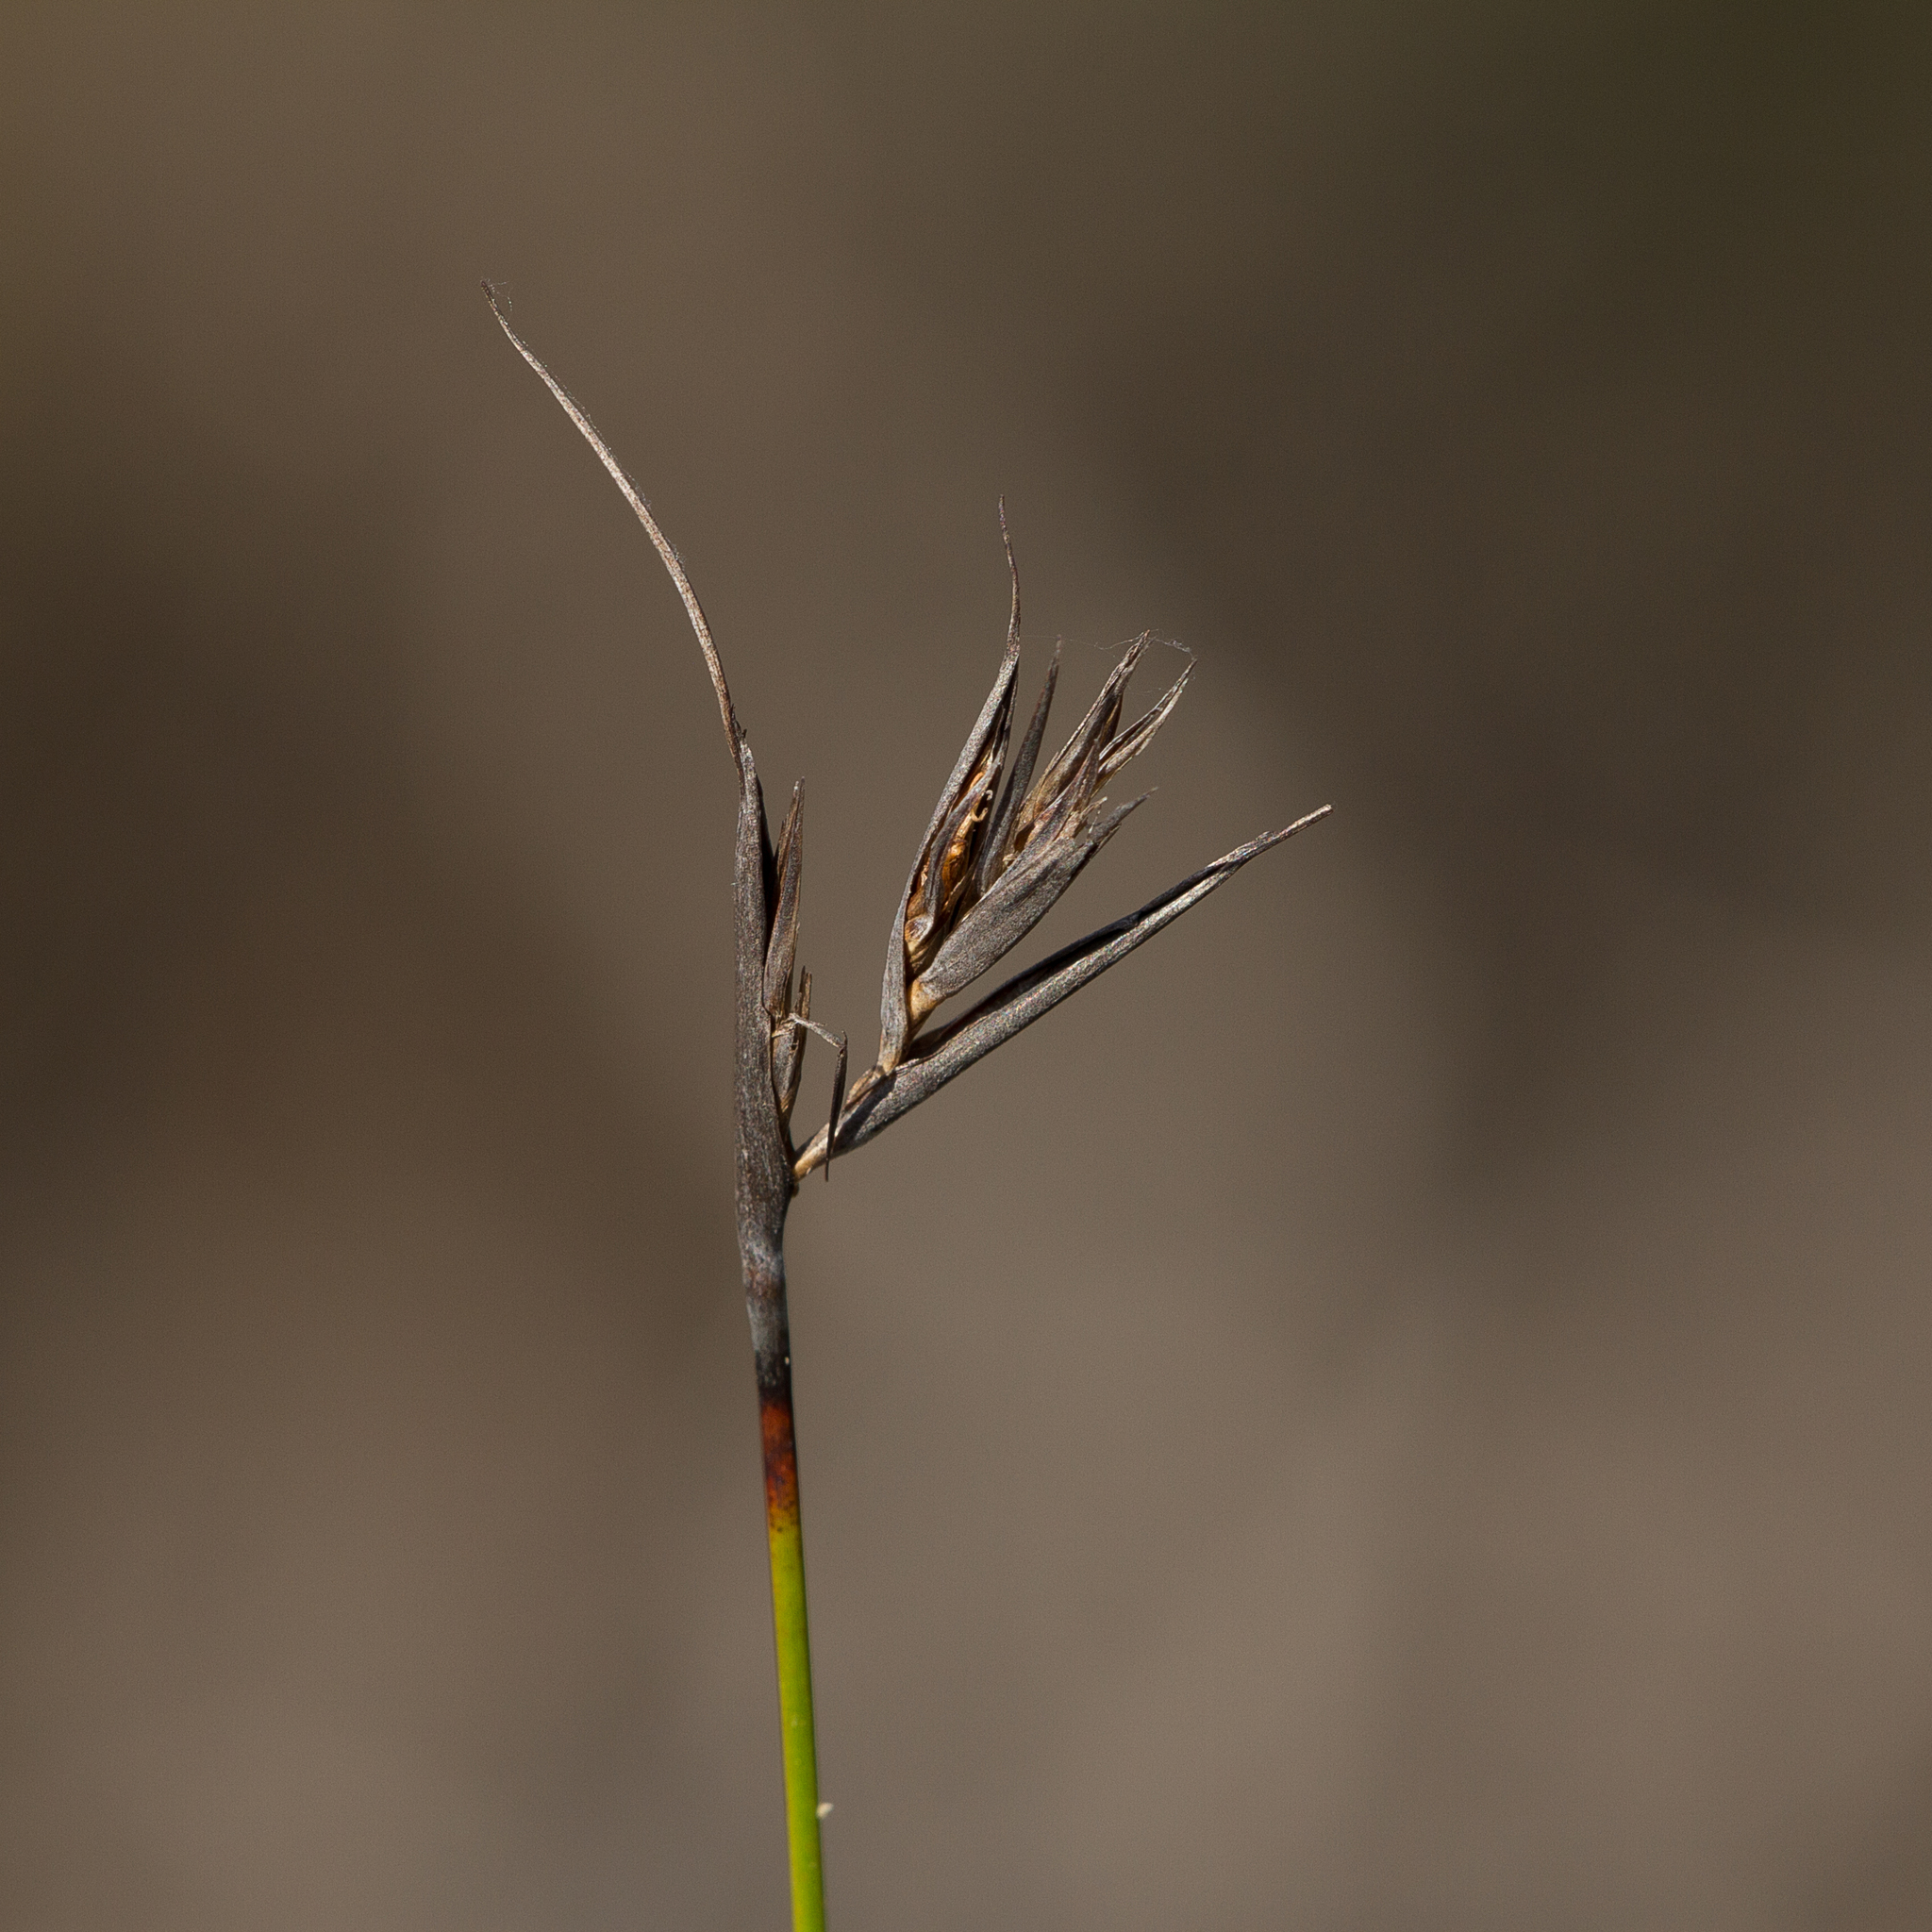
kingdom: Plantae
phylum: Tracheophyta
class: Liliopsida
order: Poales
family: Cyperaceae
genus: Lepidosperma
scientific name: Lepidosperma carphoides
